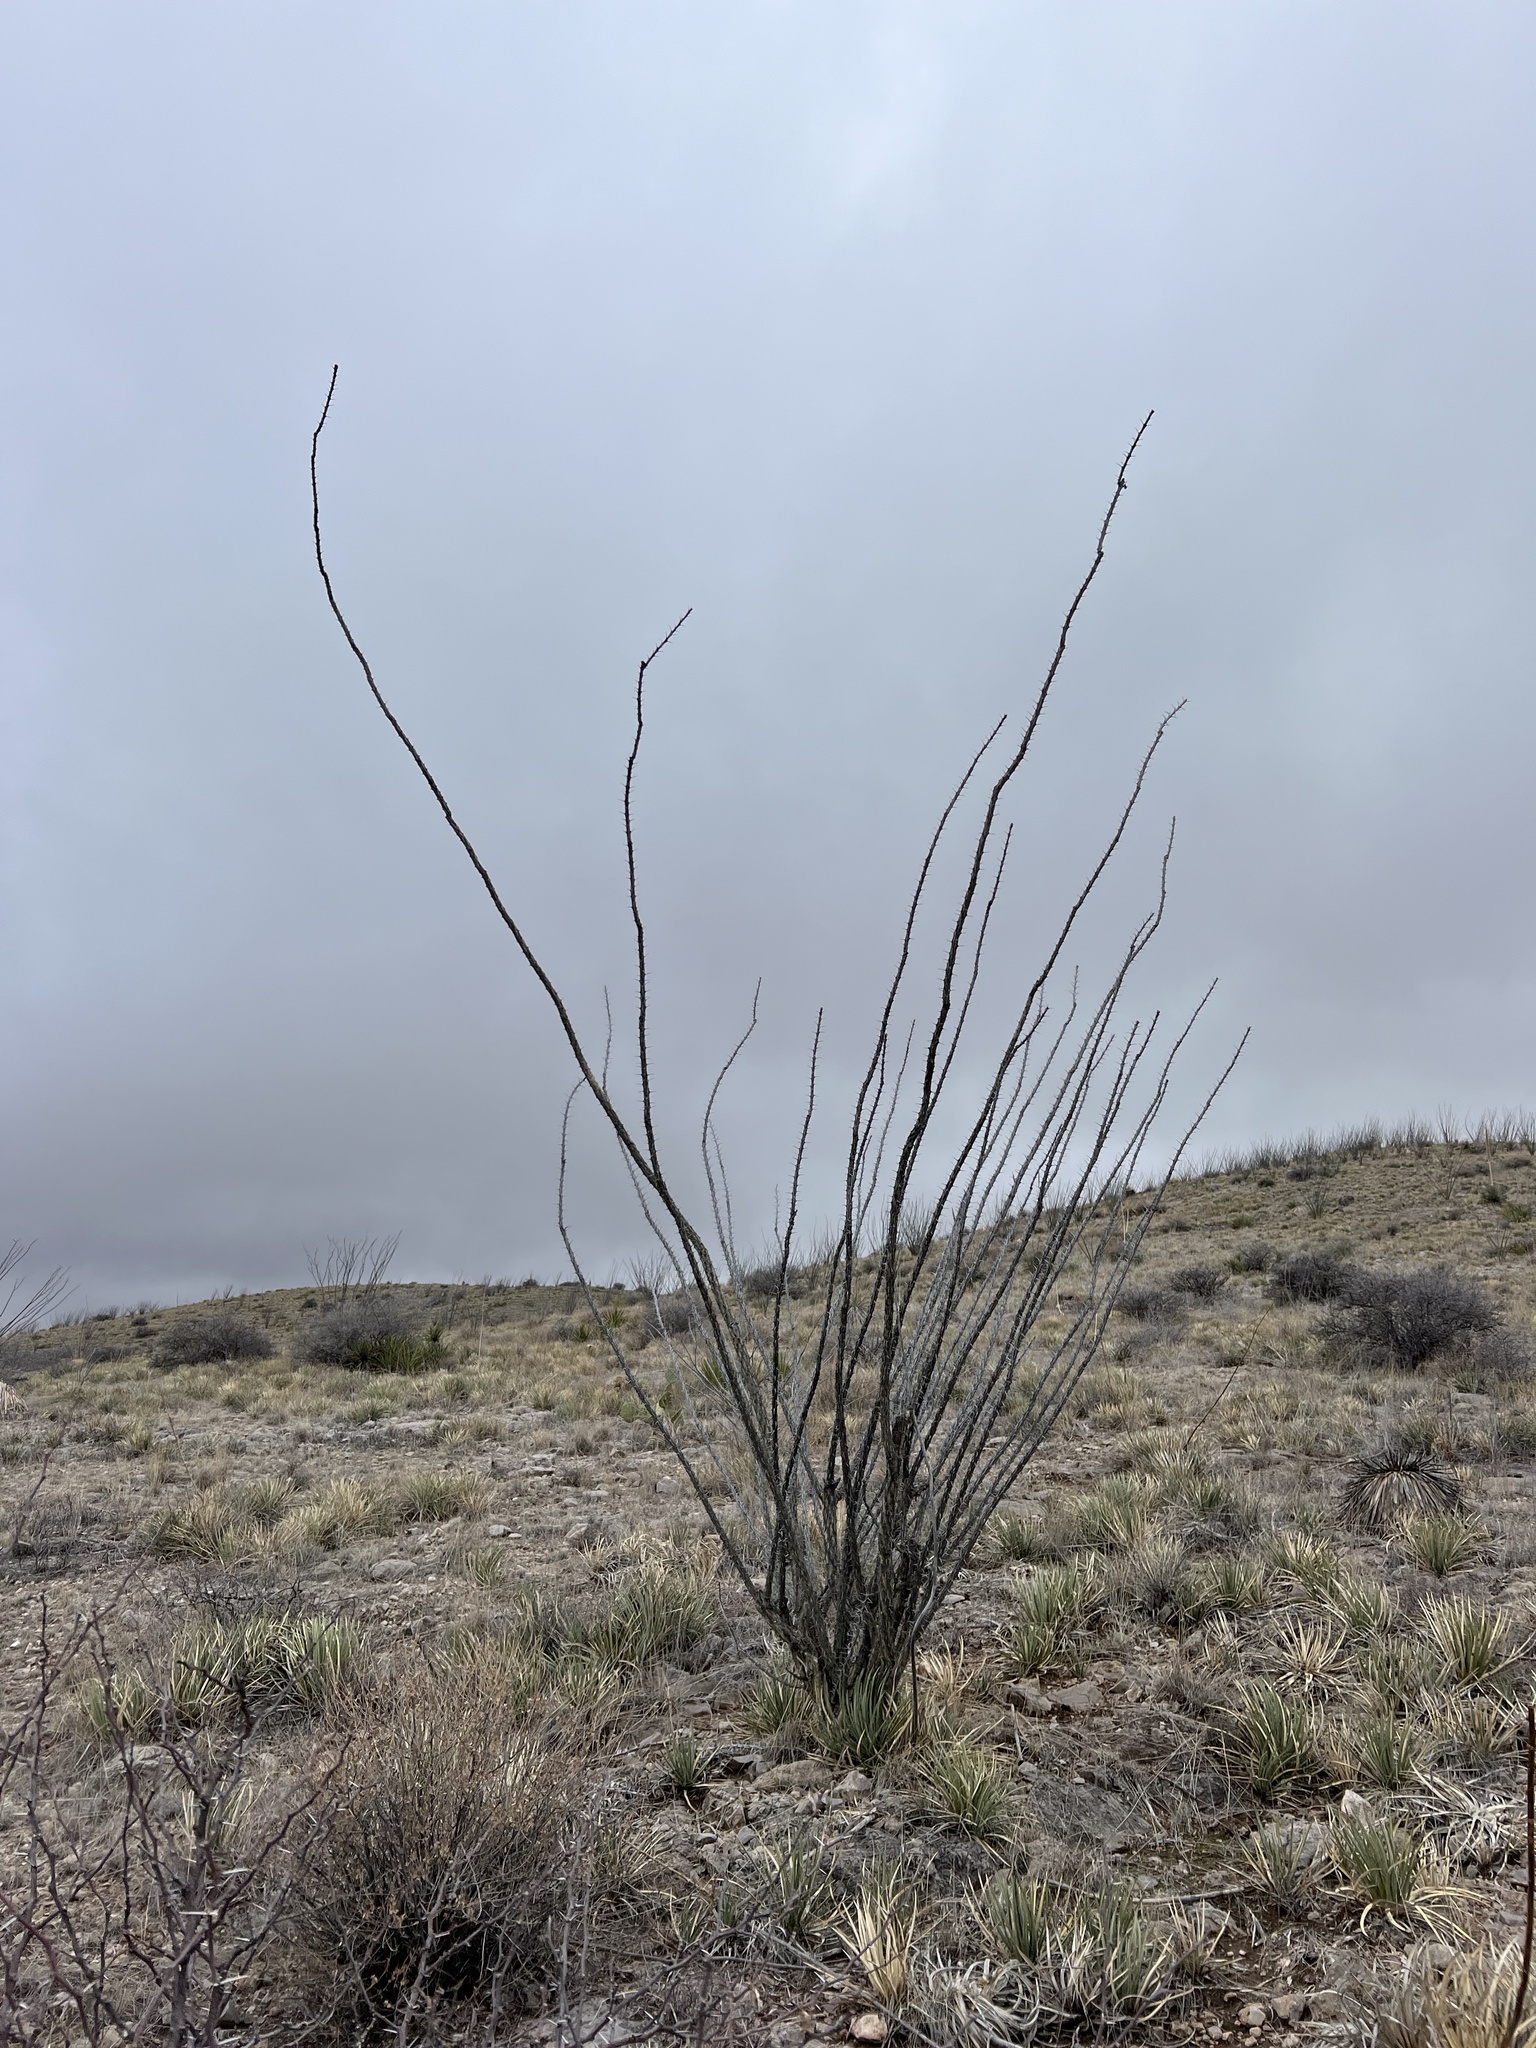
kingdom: Plantae
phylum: Tracheophyta
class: Magnoliopsida
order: Ericales
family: Fouquieriaceae
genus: Fouquieria
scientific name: Fouquieria splendens
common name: Vine-cactus
